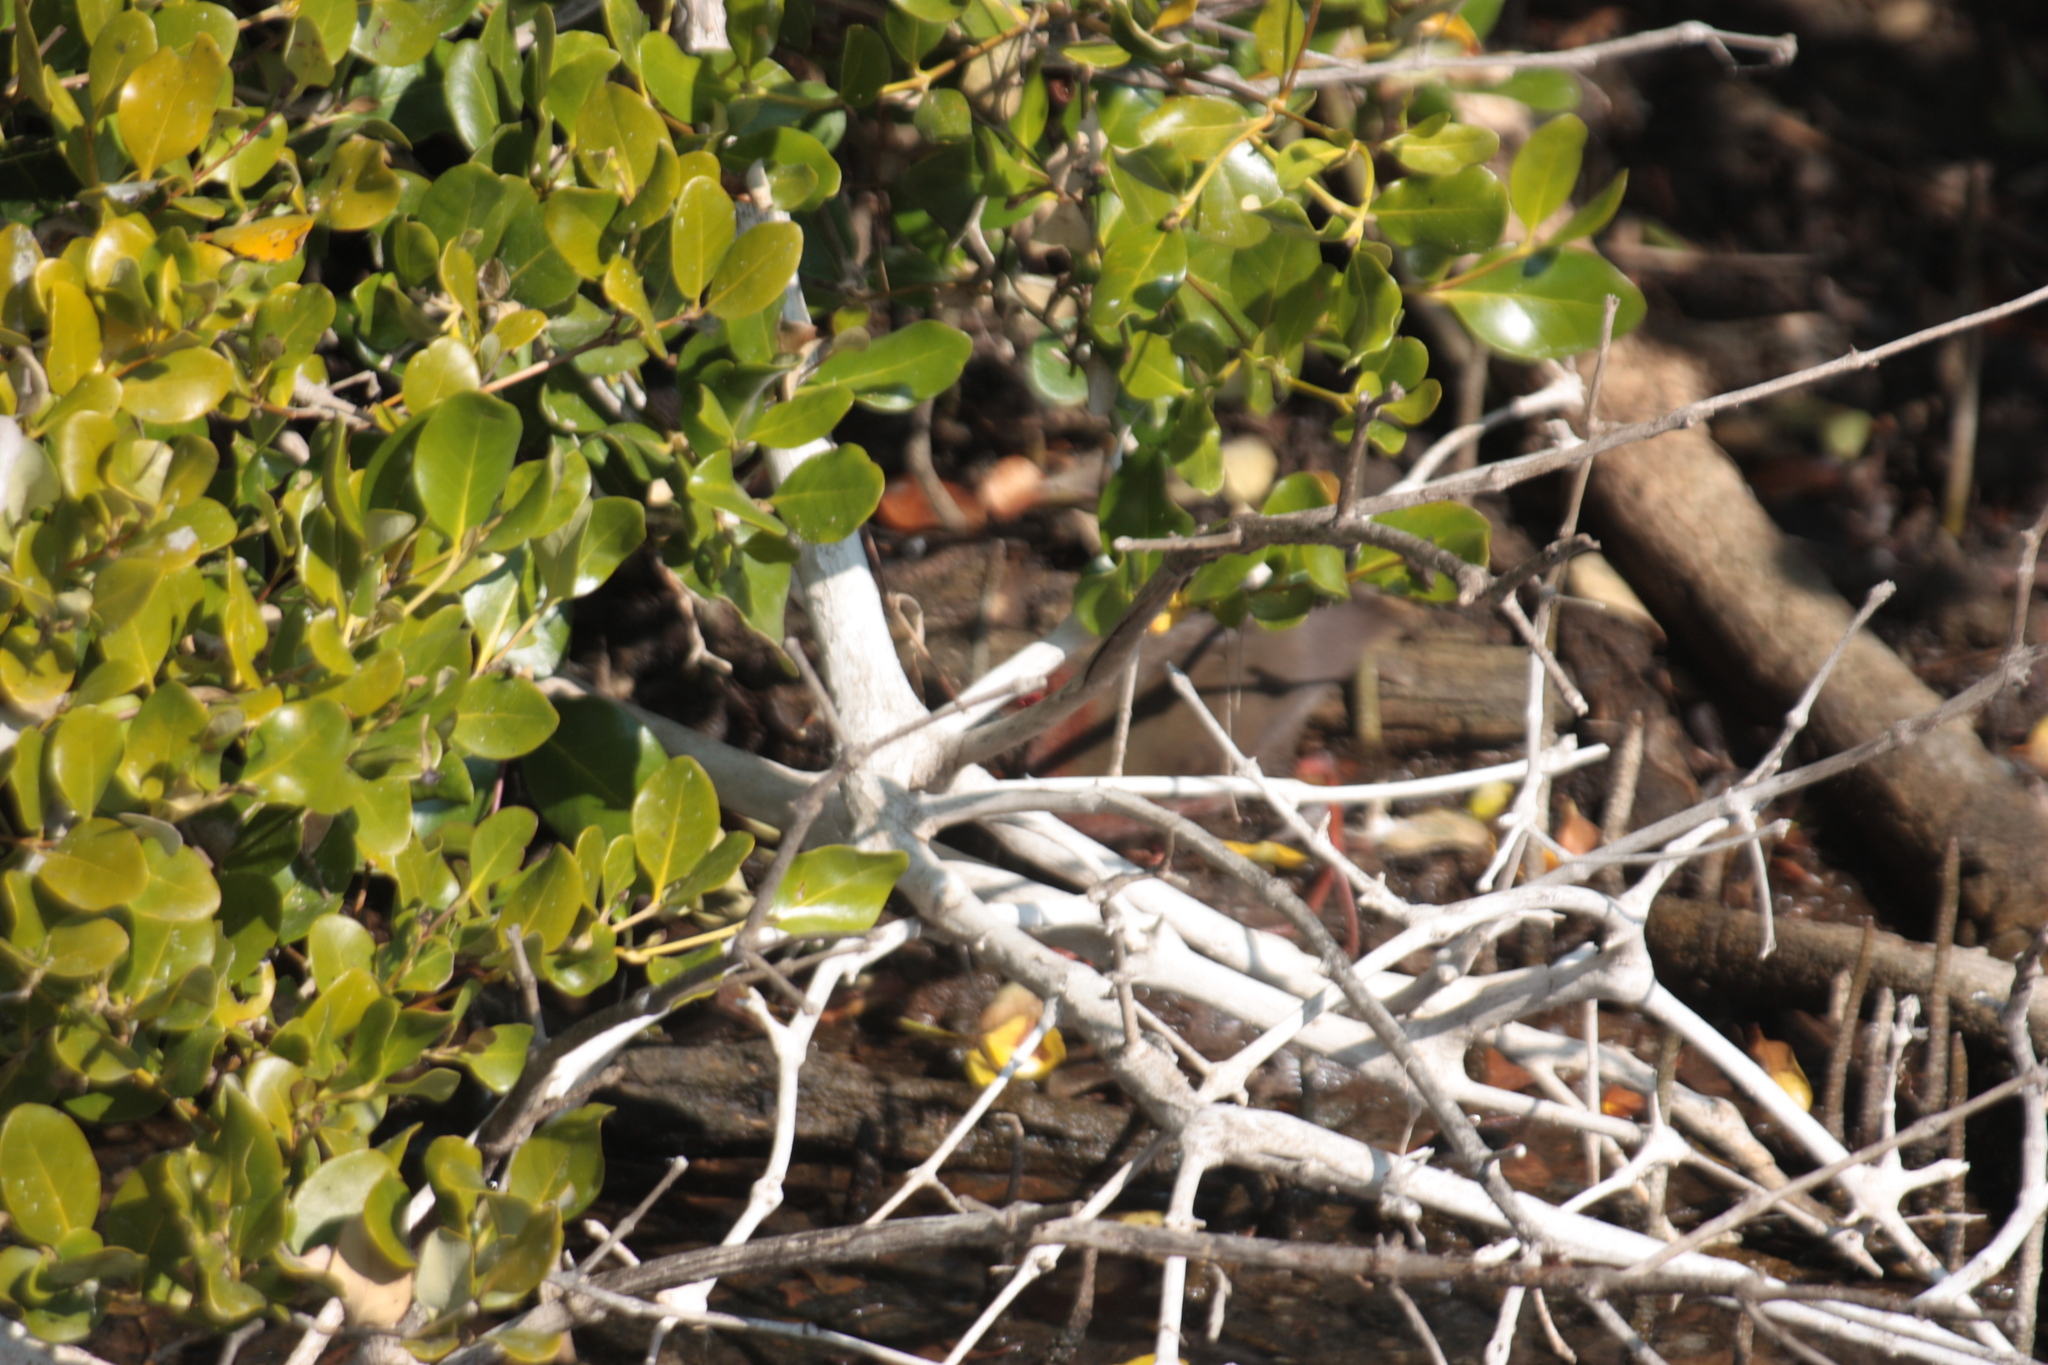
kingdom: Animalia
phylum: Chordata
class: Aves
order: Gruiformes
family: Rallidae
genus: Porzana
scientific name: Porzana fusca
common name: Ruddy-breasted crake
